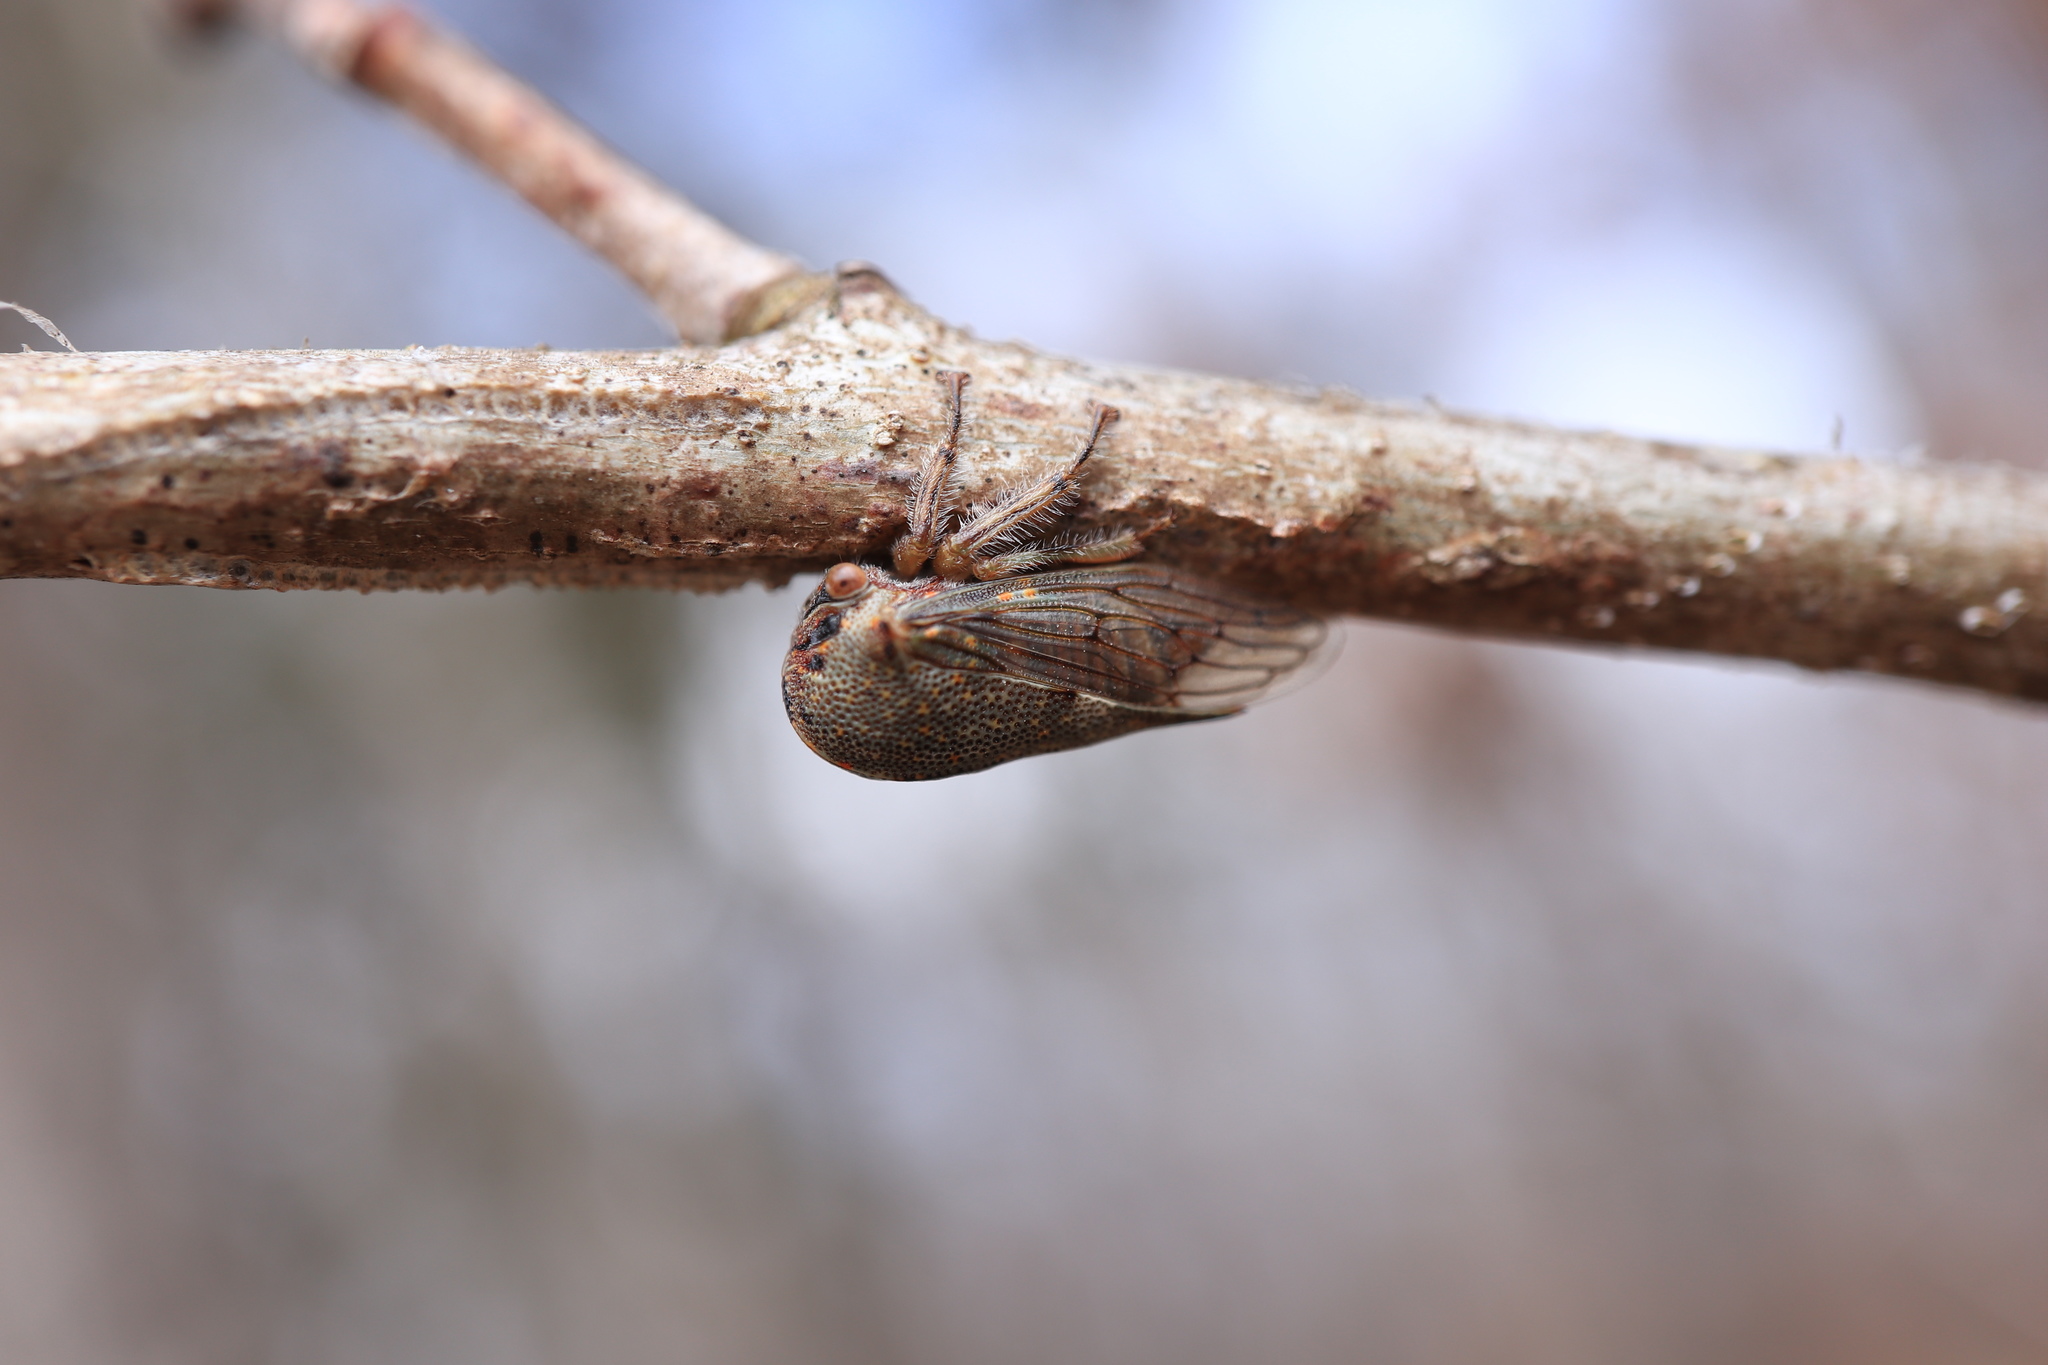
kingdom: Animalia
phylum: Arthropoda
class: Insecta
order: Hemiptera
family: Membracidae
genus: Platycotis
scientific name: Platycotis vittatus
